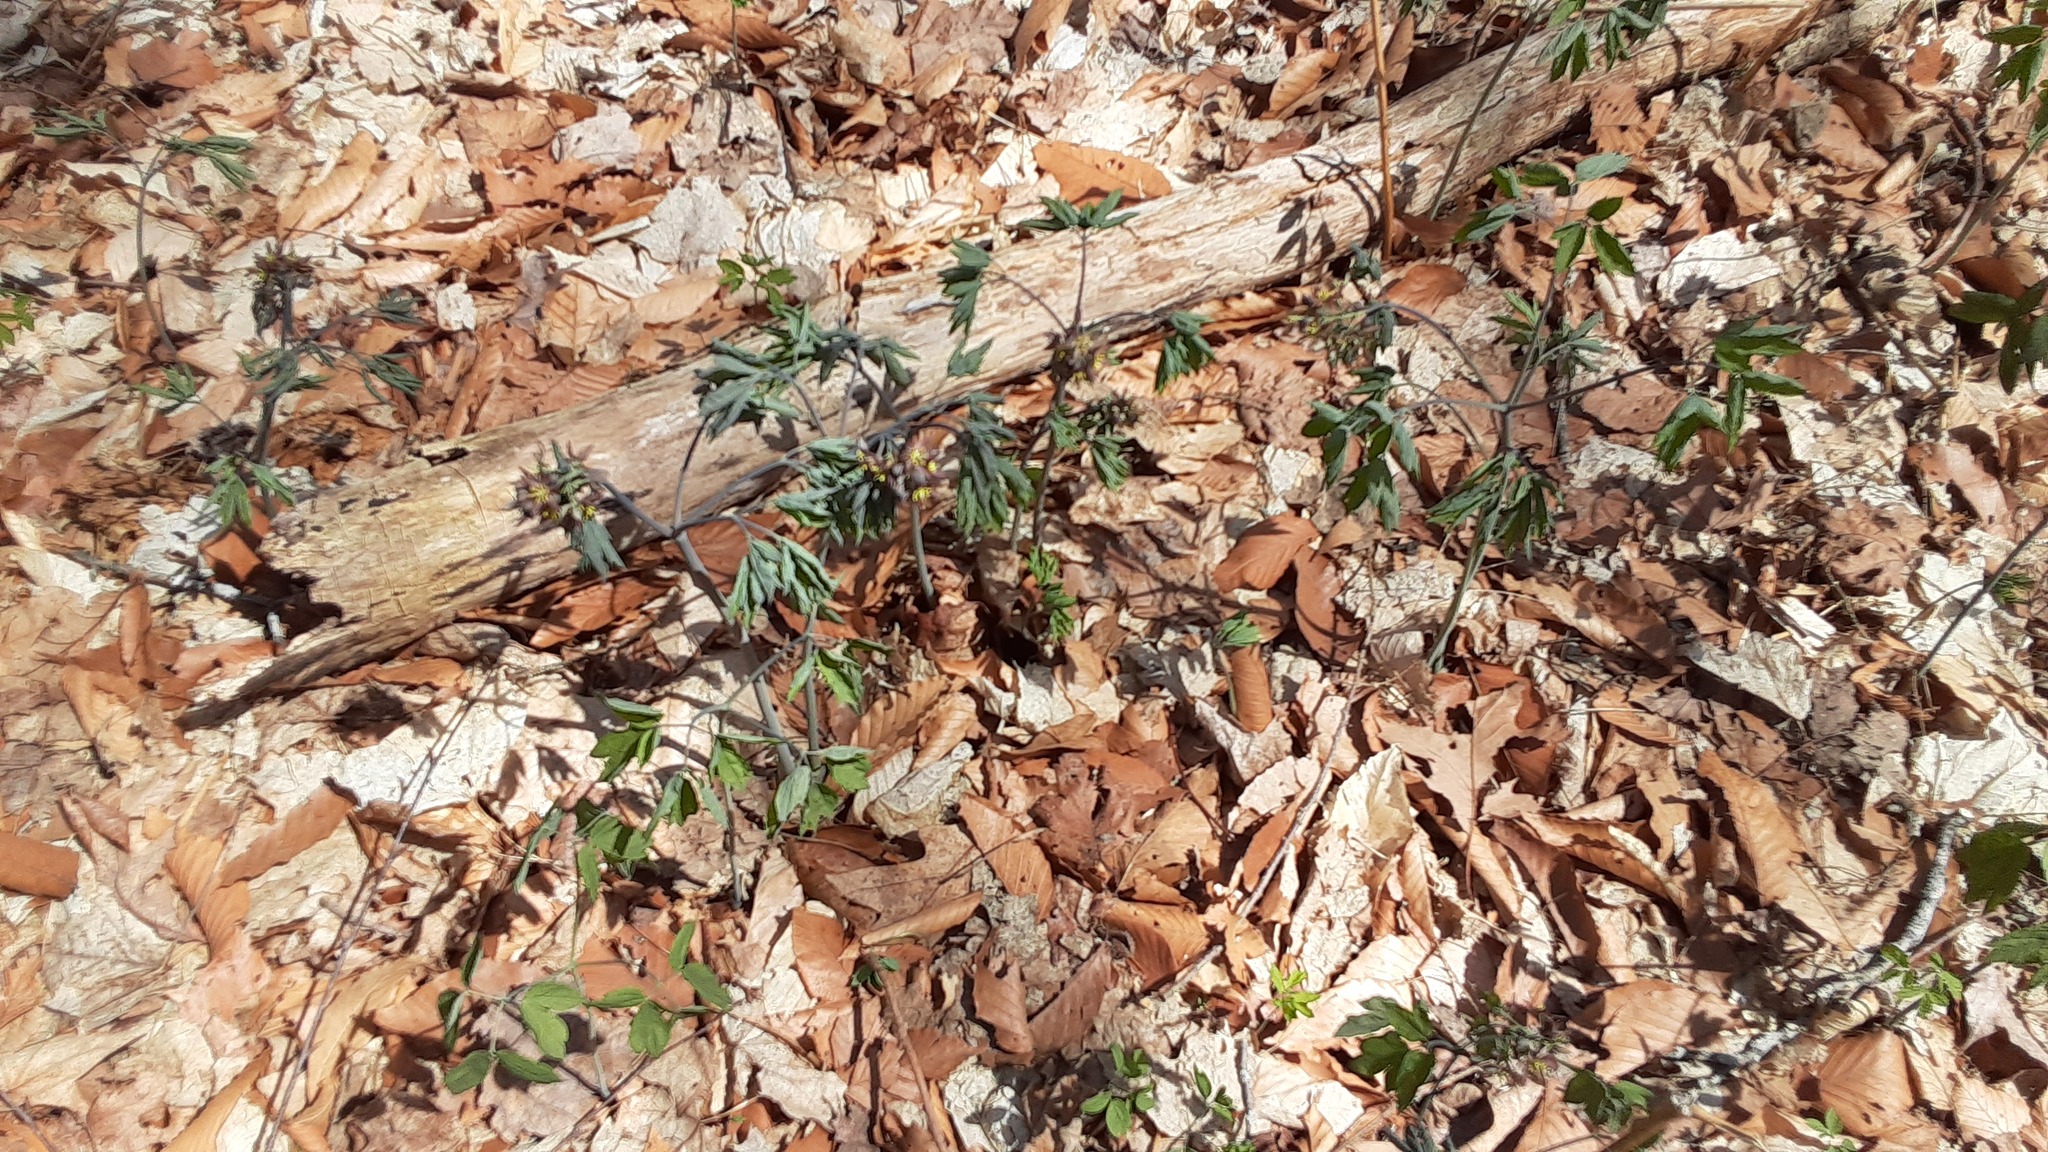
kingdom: Plantae
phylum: Tracheophyta
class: Magnoliopsida
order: Ranunculales
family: Berberidaceae
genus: Caulophyllum
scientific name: Caulophyllum giganteum
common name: Blue cohosh
